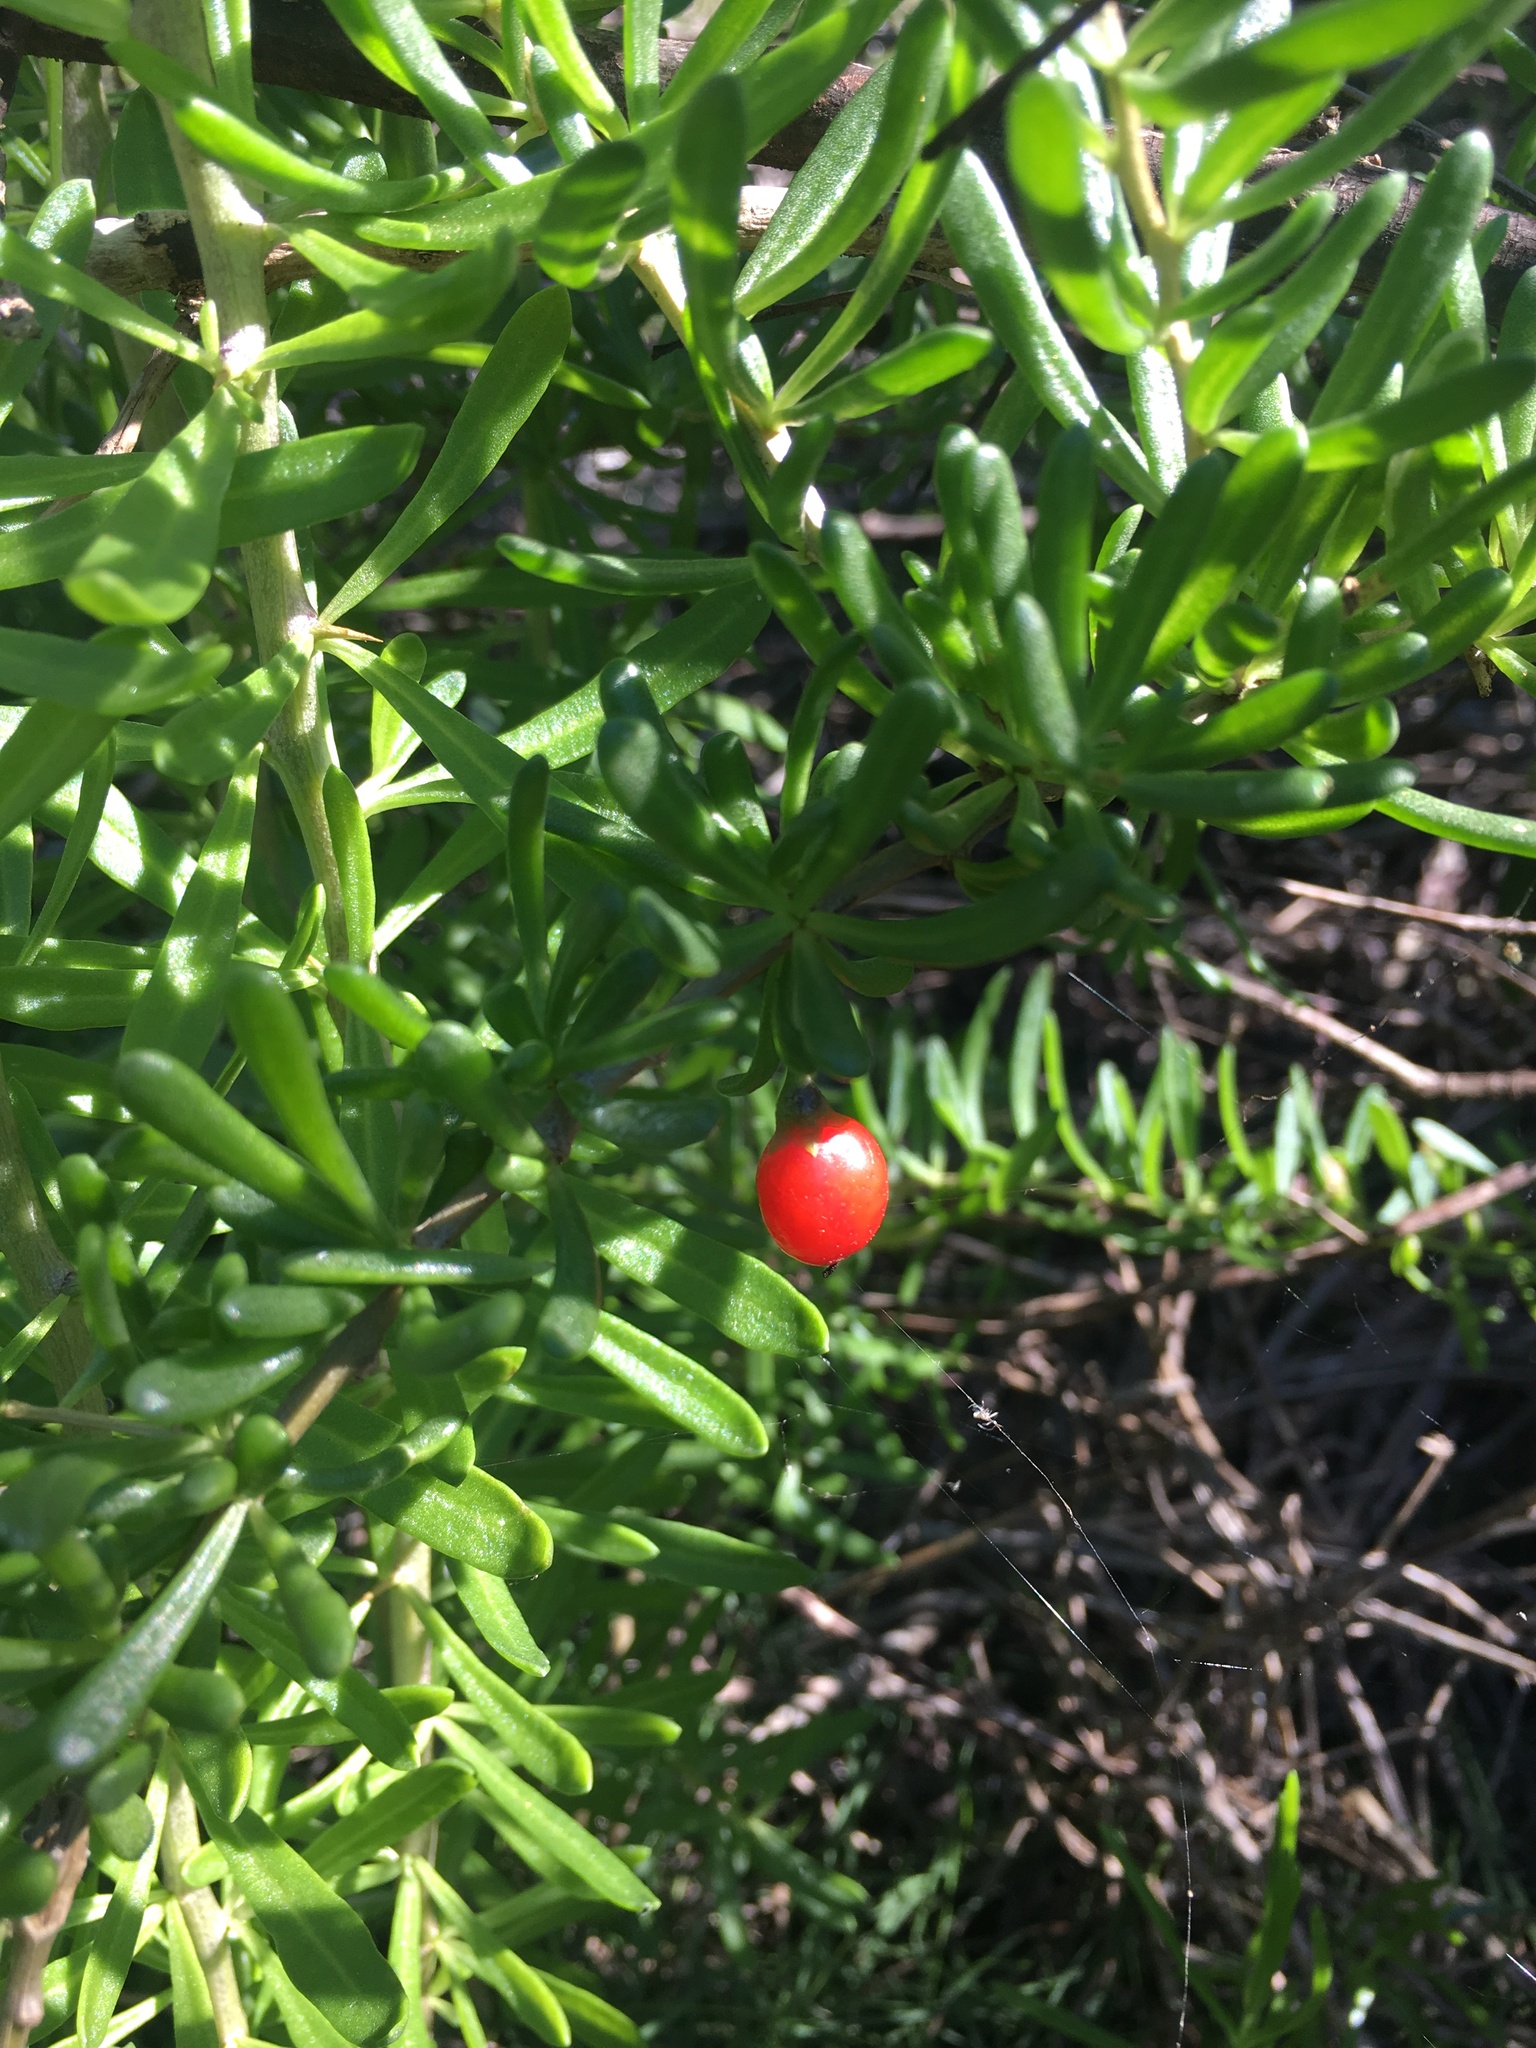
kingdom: Plantae
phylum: Tracheophyta
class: Magnoliopsida
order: Solanales
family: Solanaceae
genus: Lycium
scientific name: Lycium carolinianum
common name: Christmasberry
